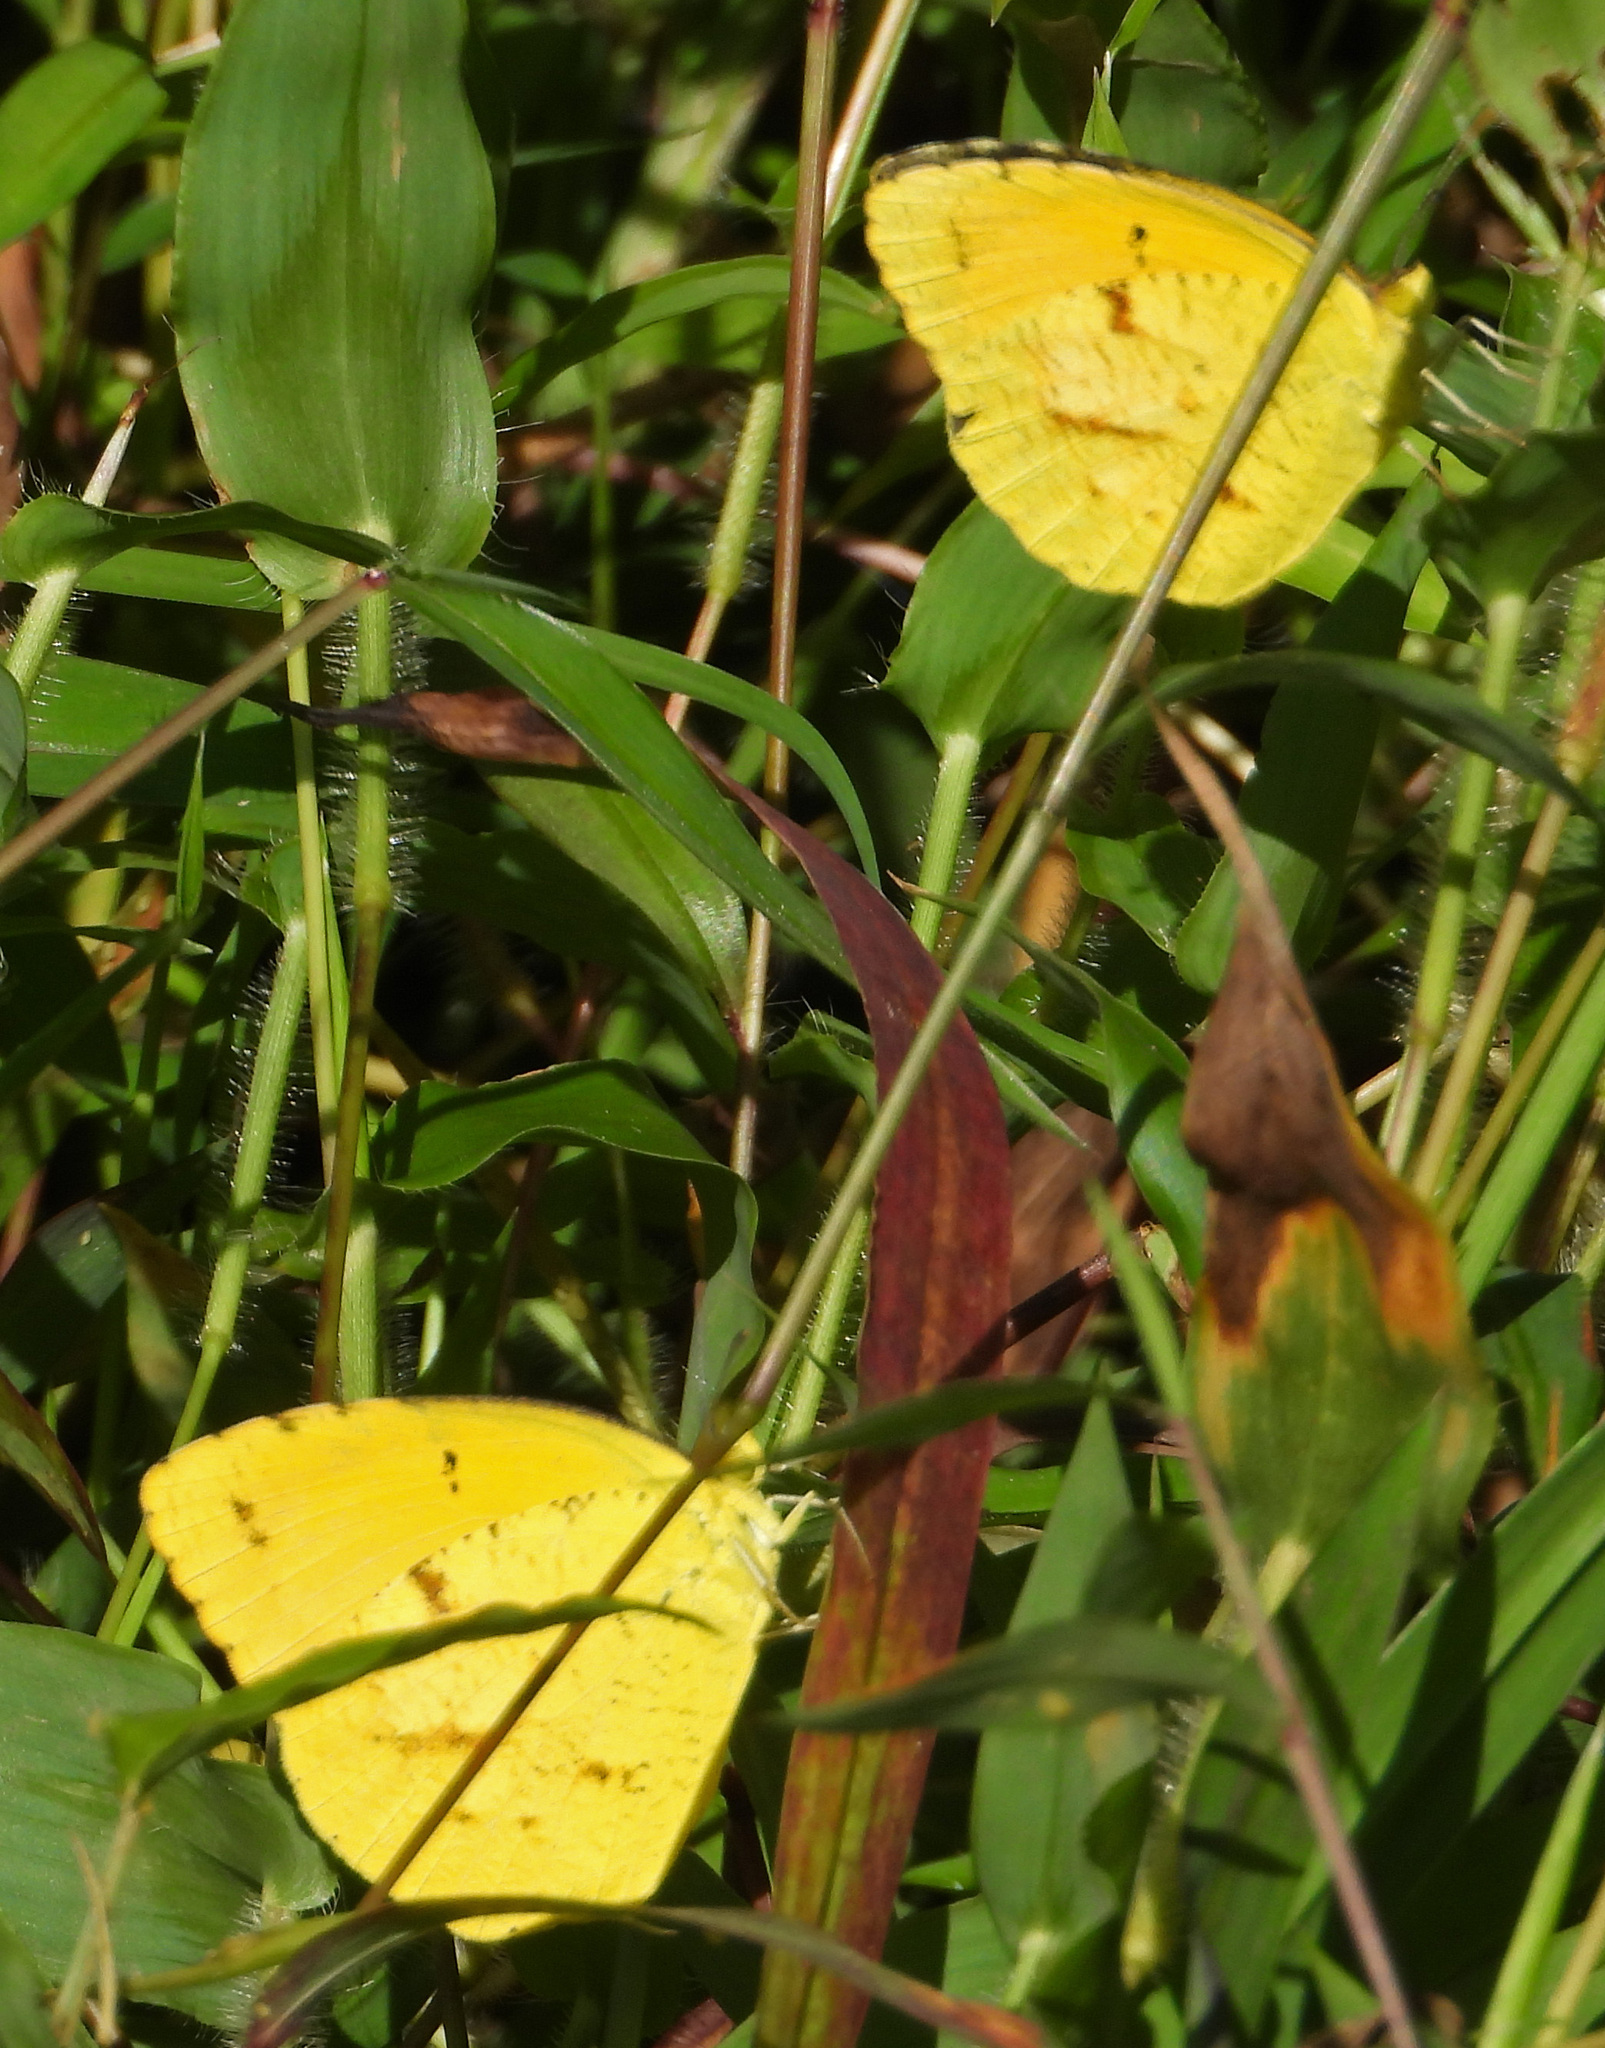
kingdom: Animalia
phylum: Arthropoda
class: Insecta
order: Lepidoptera
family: Pieridae
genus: Abaeis
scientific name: Abaeis nicippe
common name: Sleepy orange
